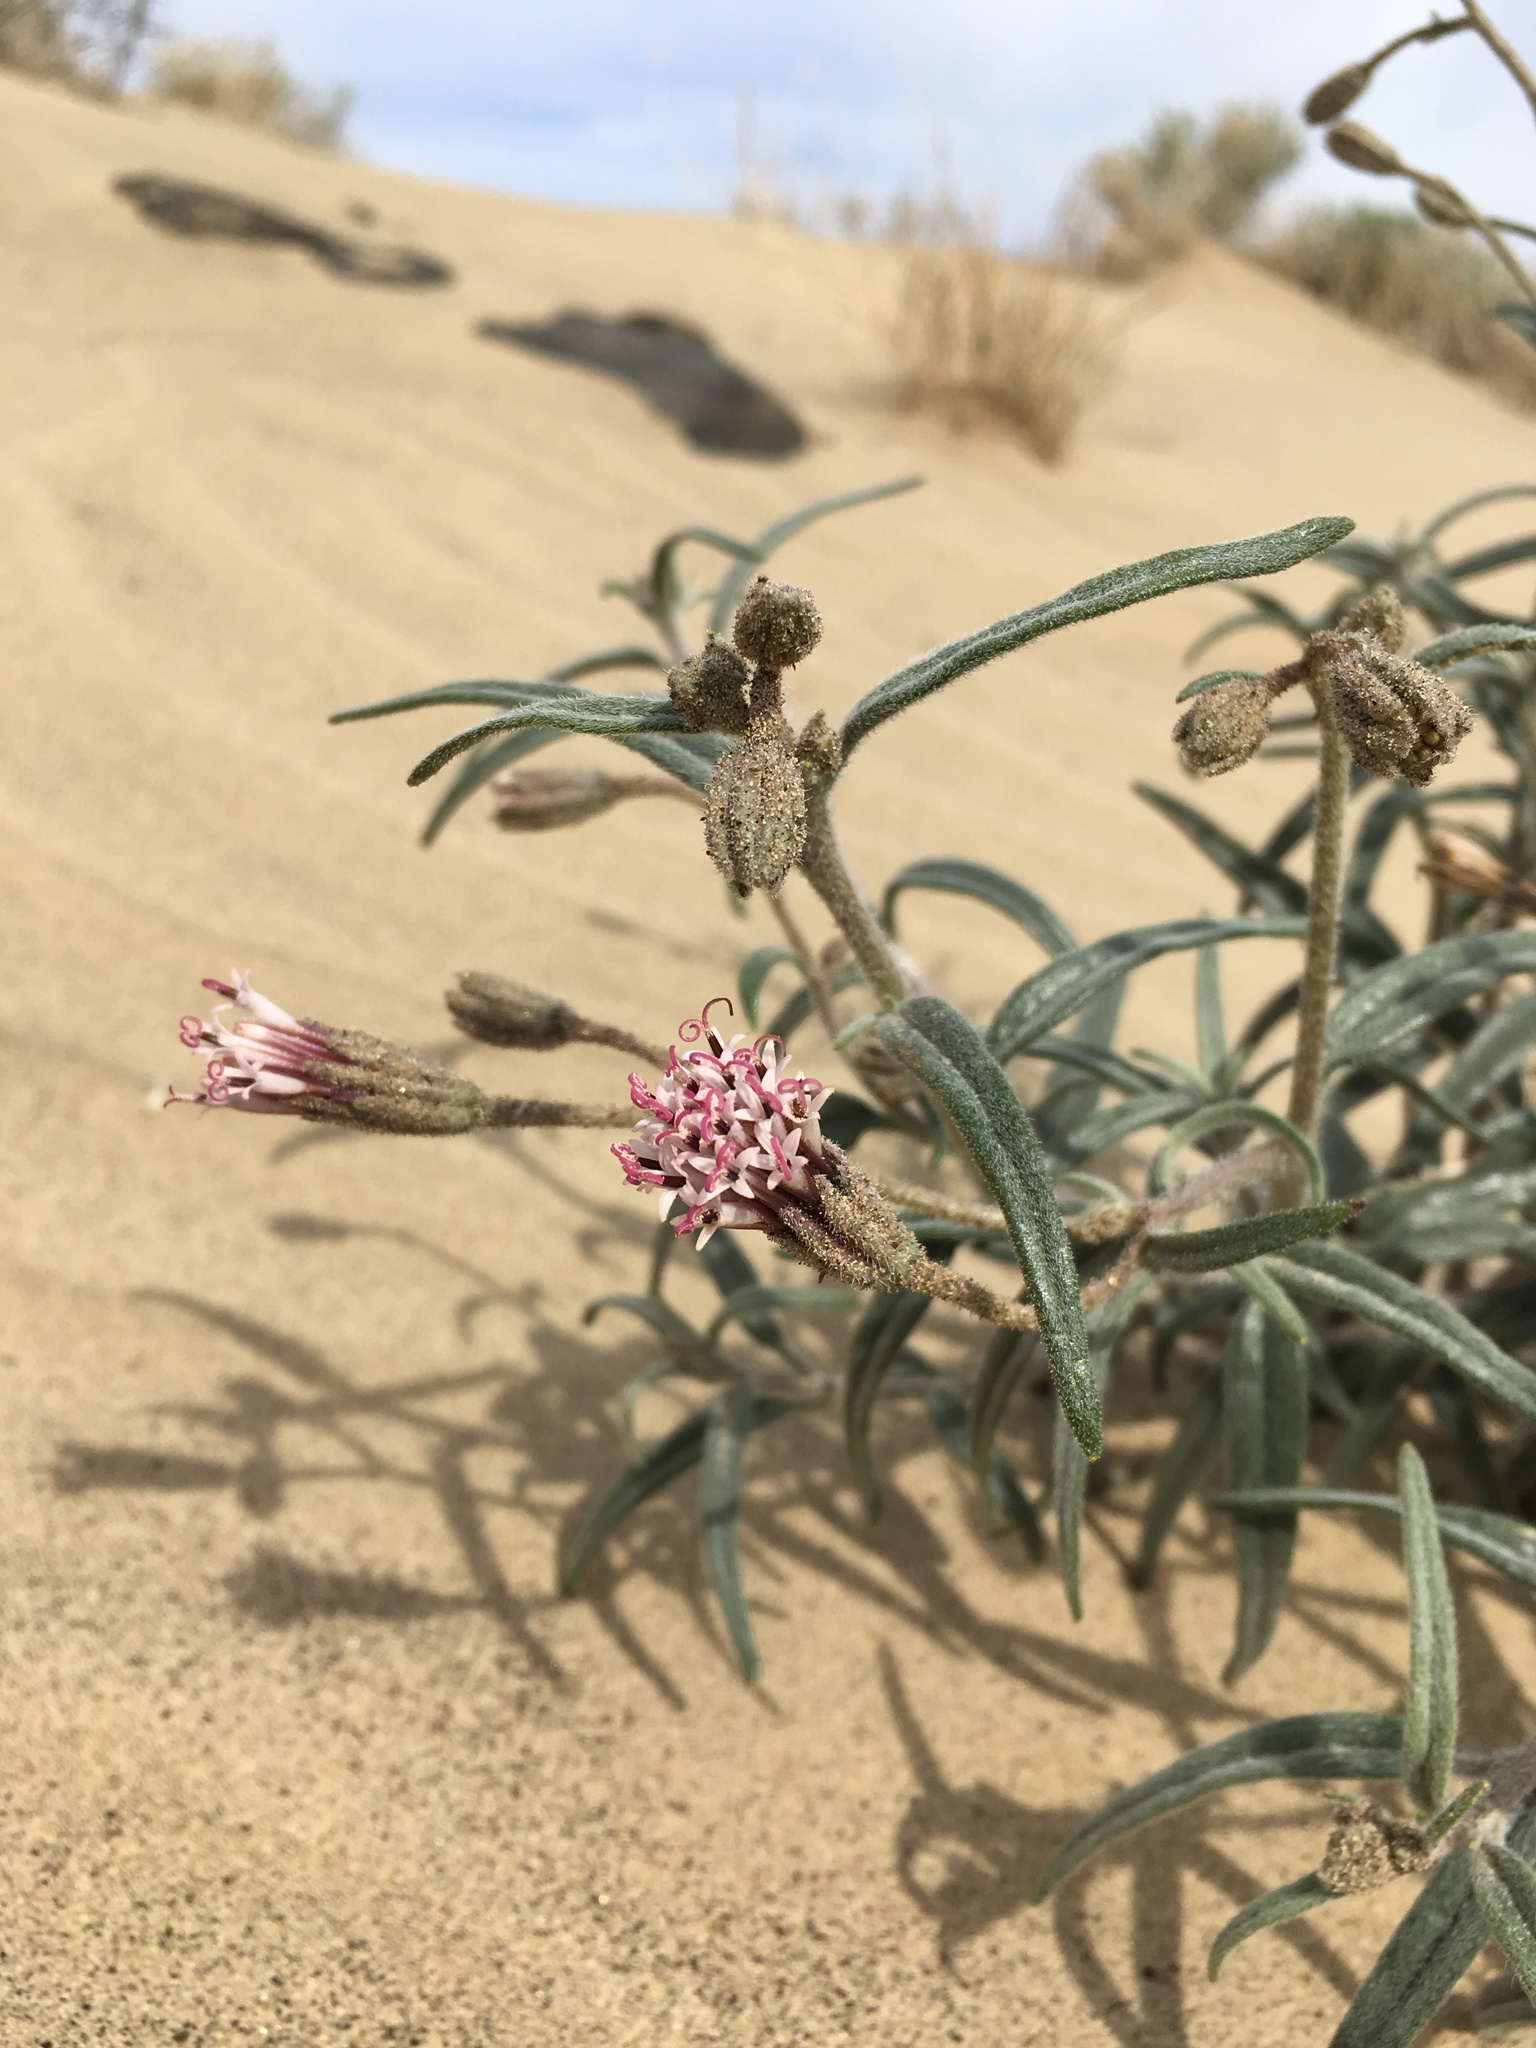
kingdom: Plantae
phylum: Tracheophyta
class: Magnoliopsida
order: Asterales
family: Asteraceae
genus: Palafoxia
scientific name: Palafoxia arida
